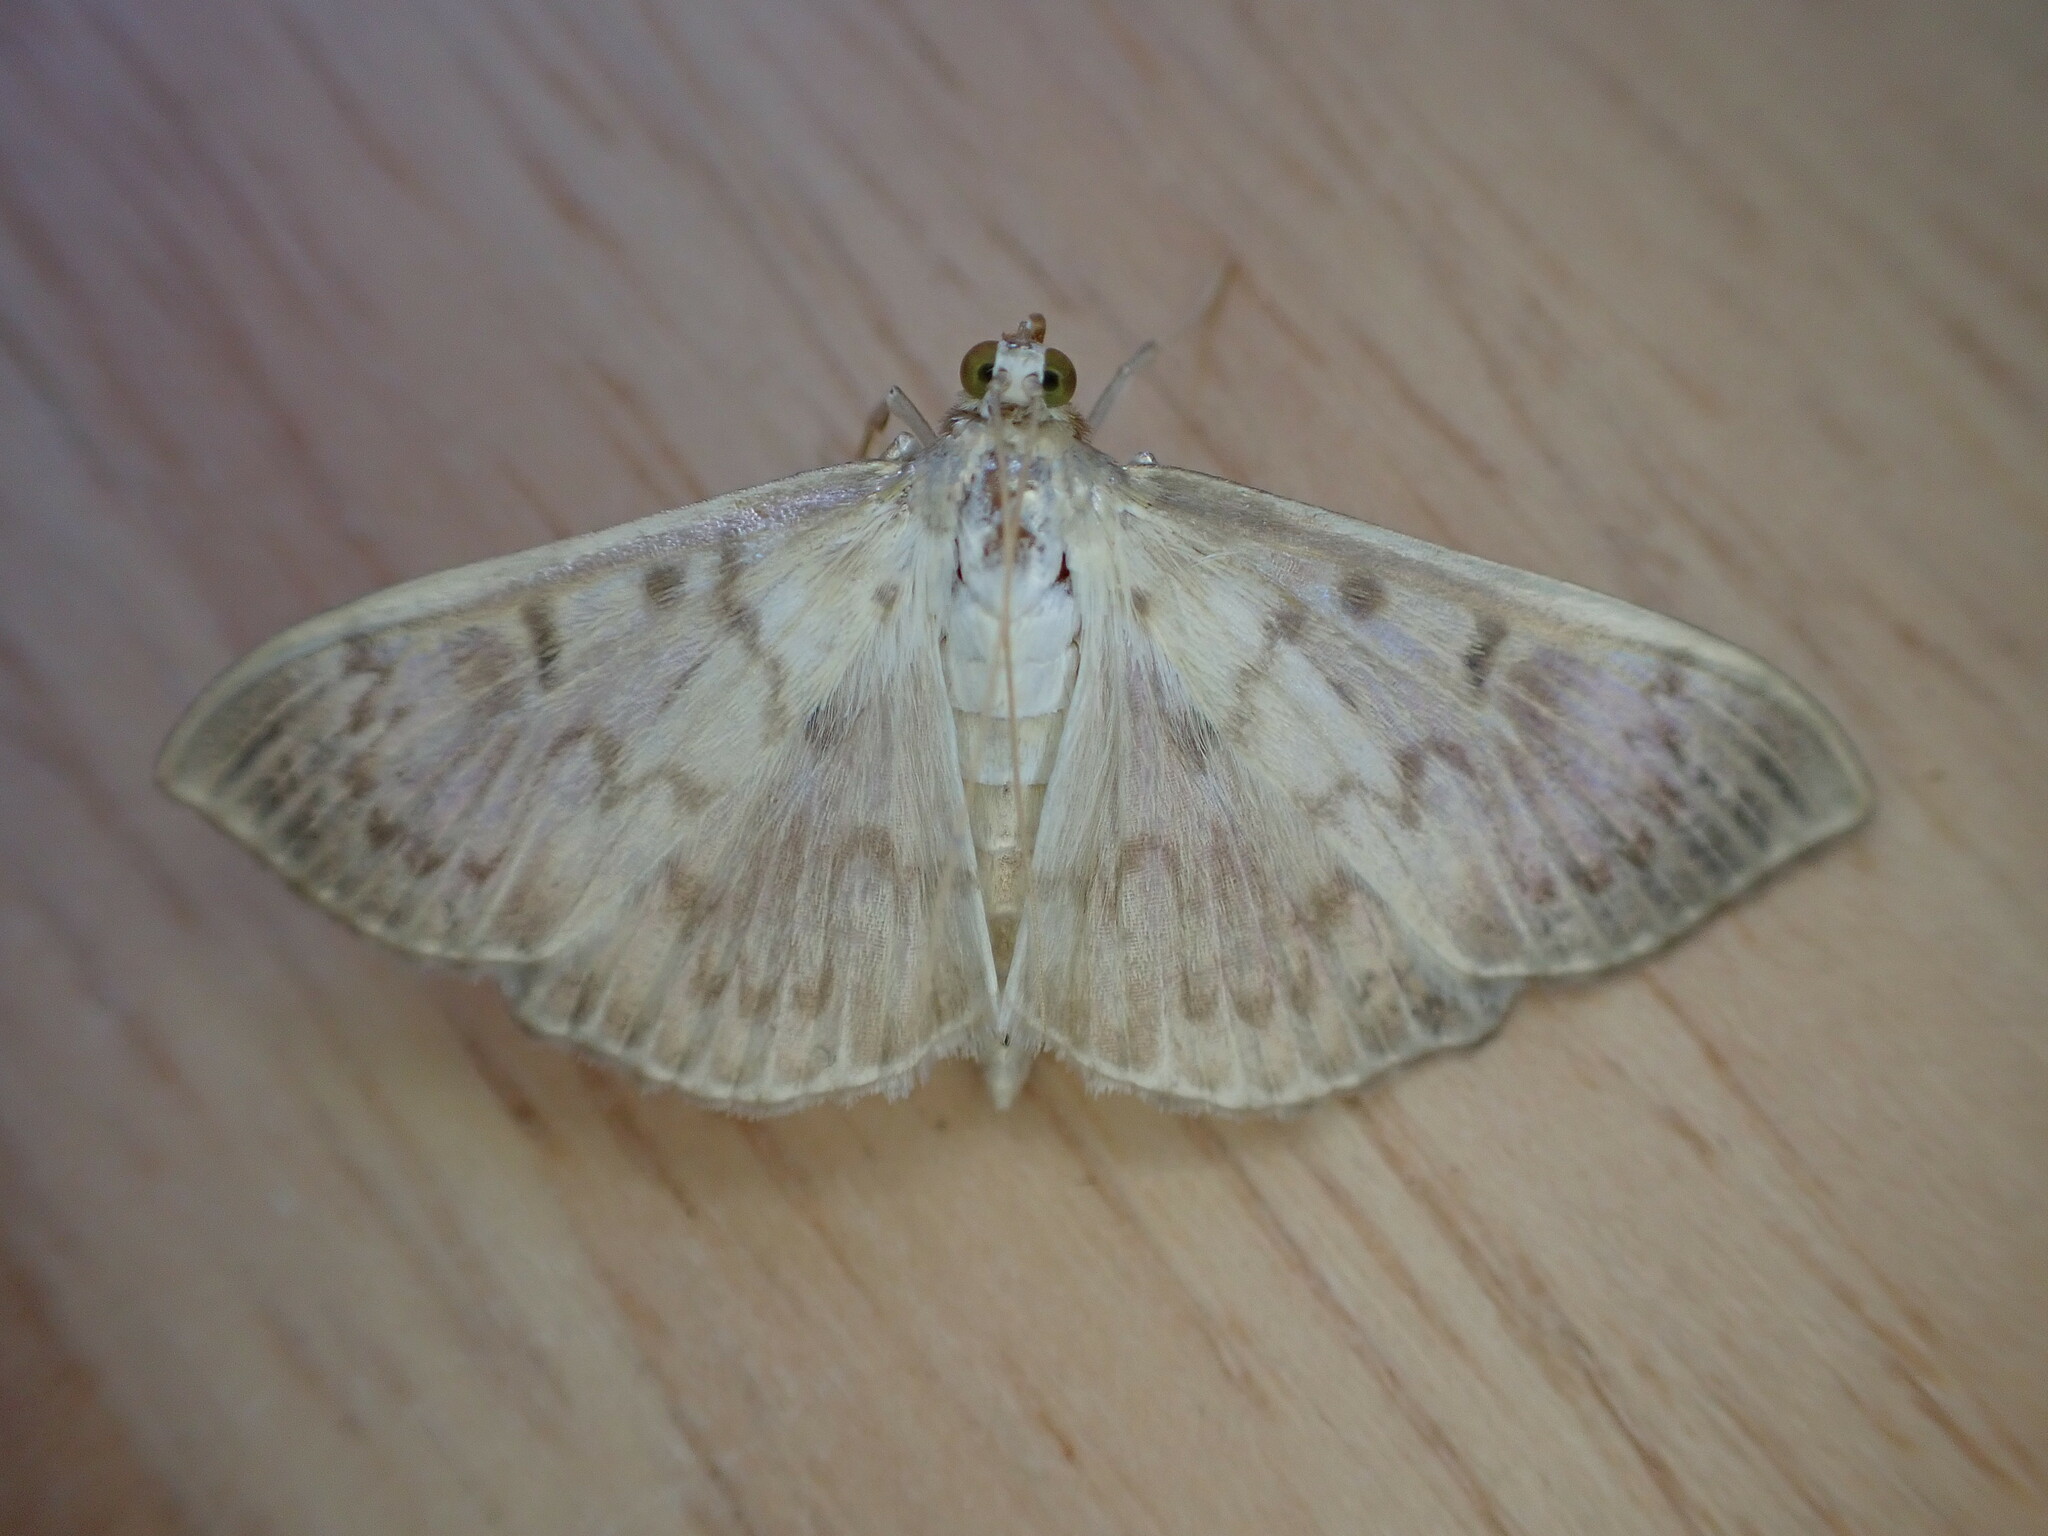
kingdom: Animalia
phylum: Arthropoda
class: Insecta
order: Lepidoptera
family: Crambidae
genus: Patania
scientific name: Patania ruralis
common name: Mother of pearl
